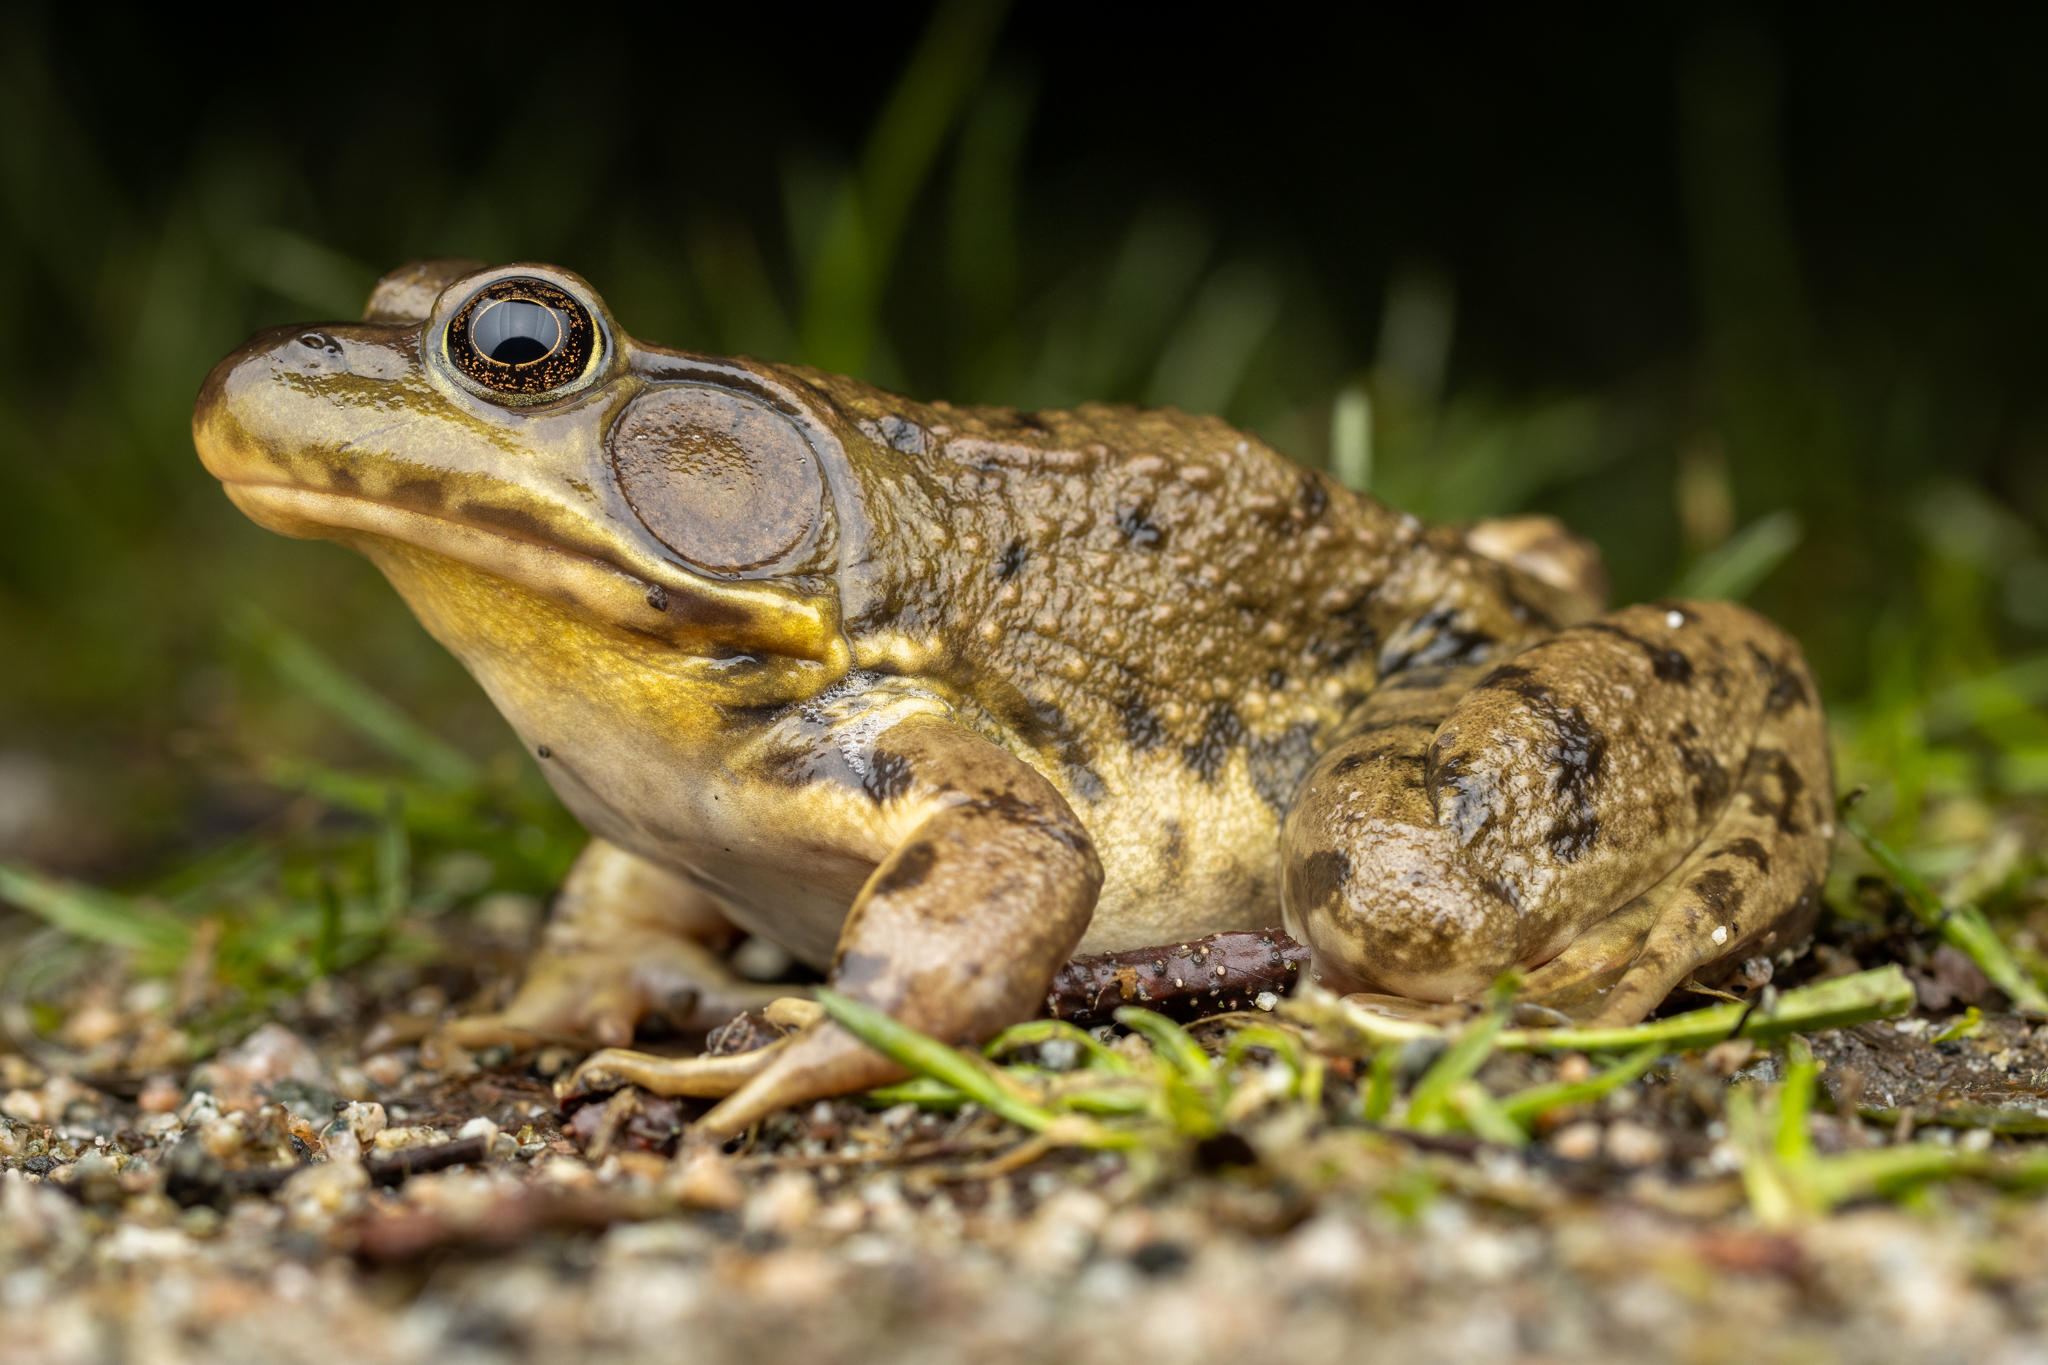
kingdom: Animalia
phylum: Chordata
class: Amphibia
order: Anura
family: Ranidae
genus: Lithobates
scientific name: Lithobates clamitans
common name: Green frog
